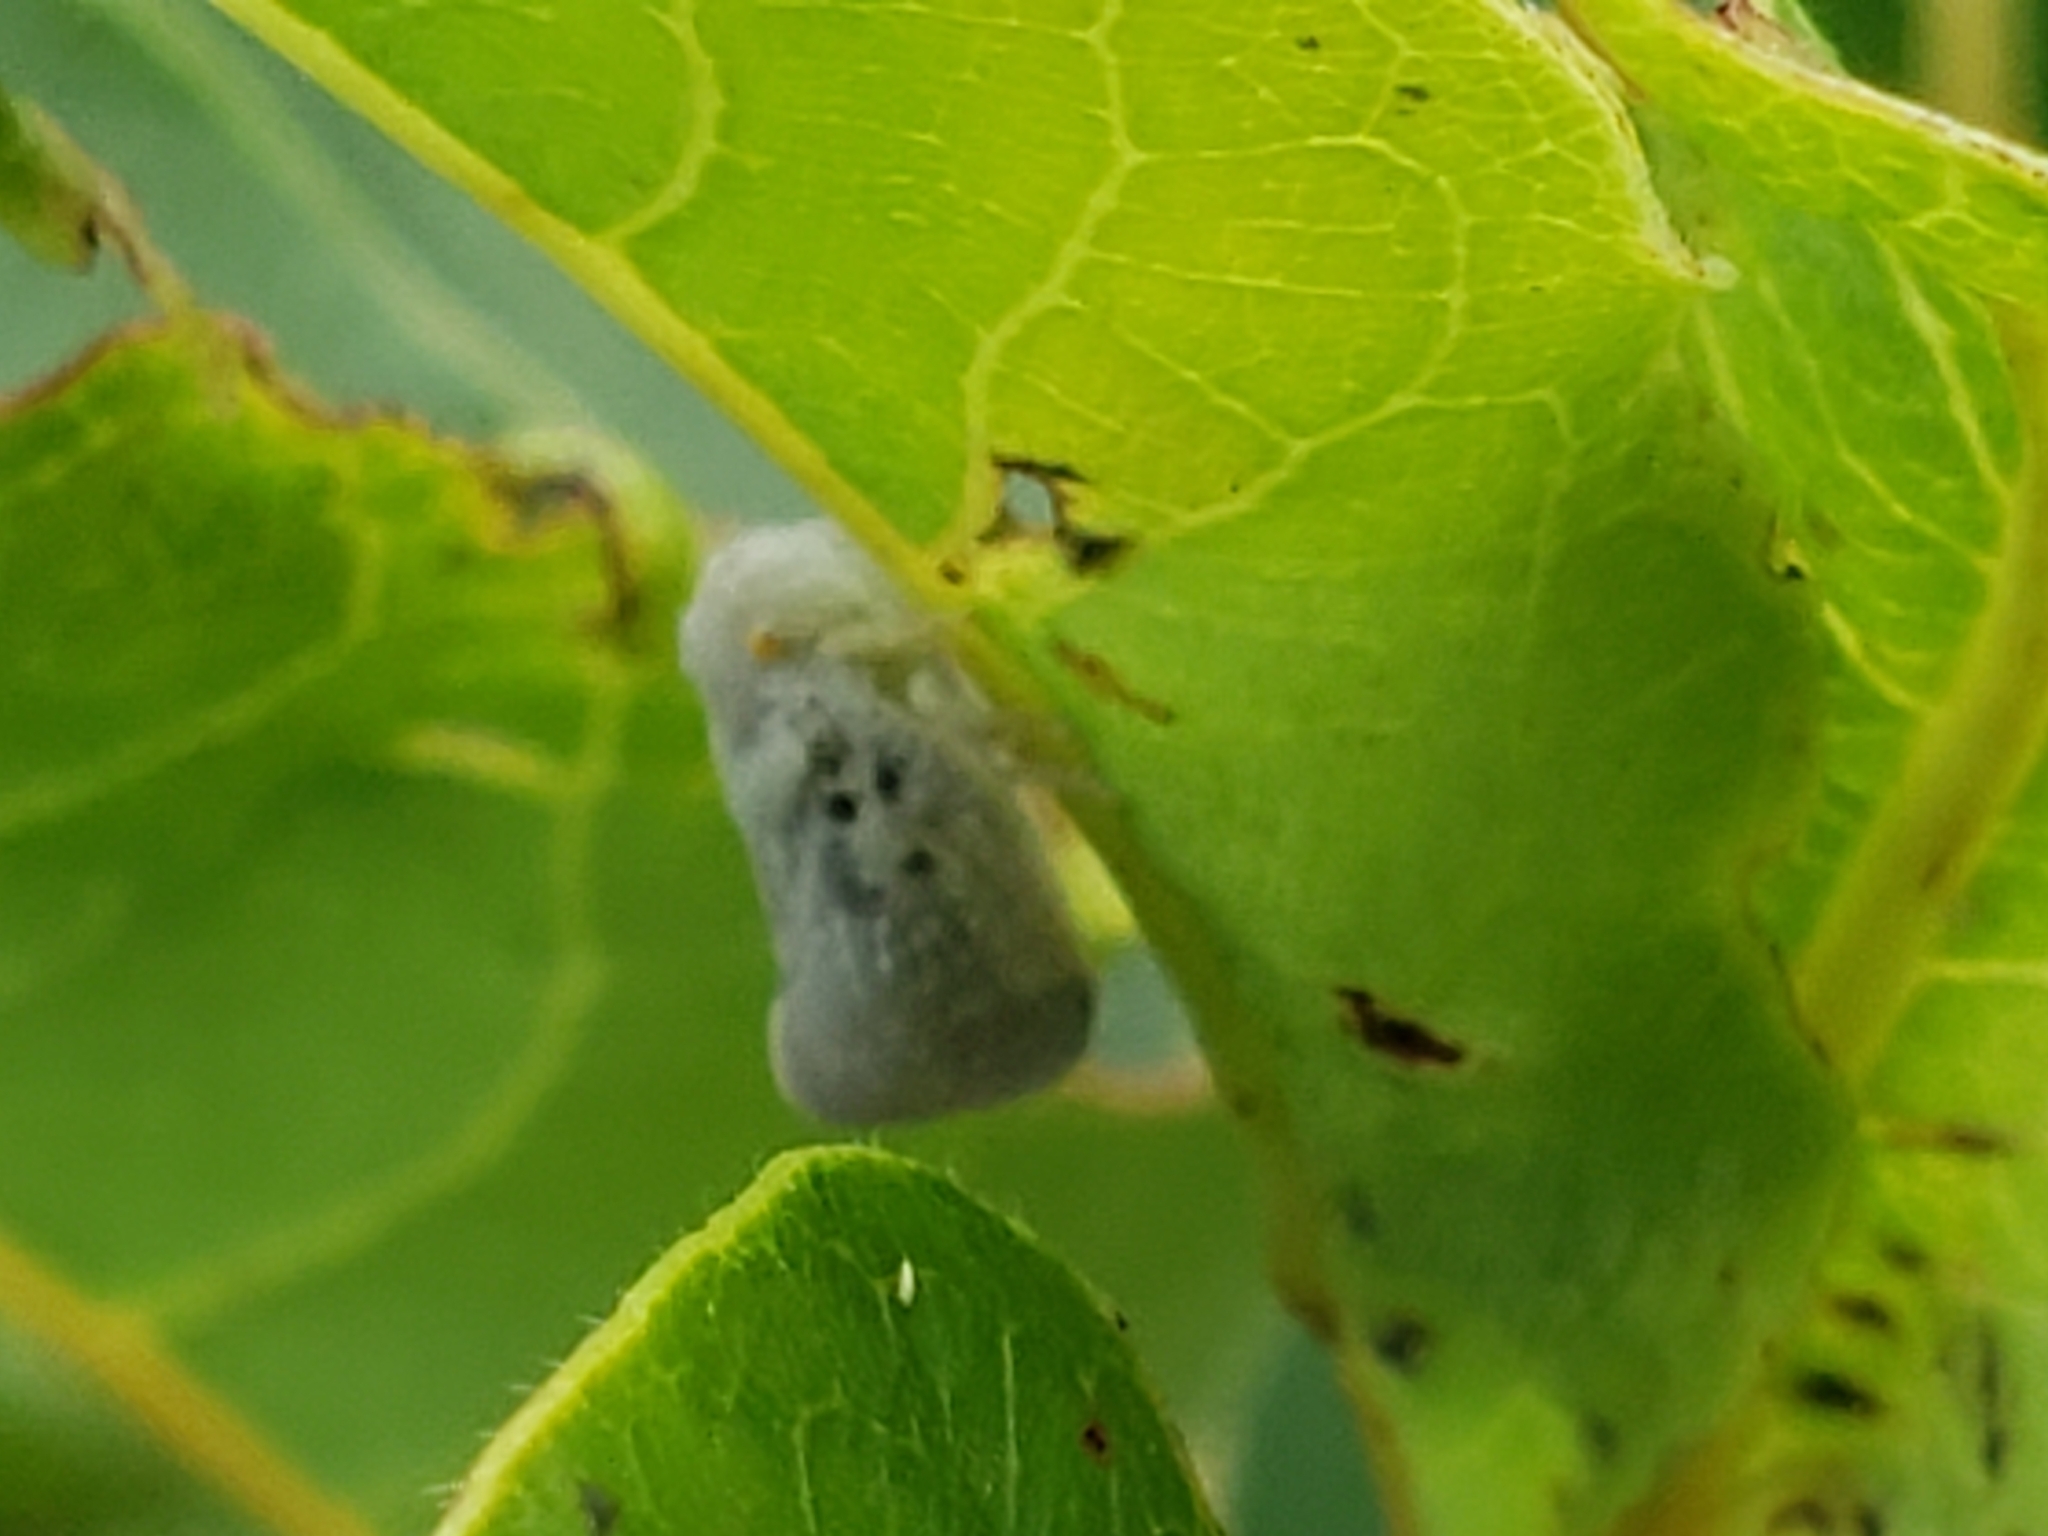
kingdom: Animalia
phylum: Arthropoda
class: Insecta
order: Hemiptera
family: Flatidae
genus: Metcalfa
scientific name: Metcalfa pruinosa
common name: Citrus flatid planthopper
